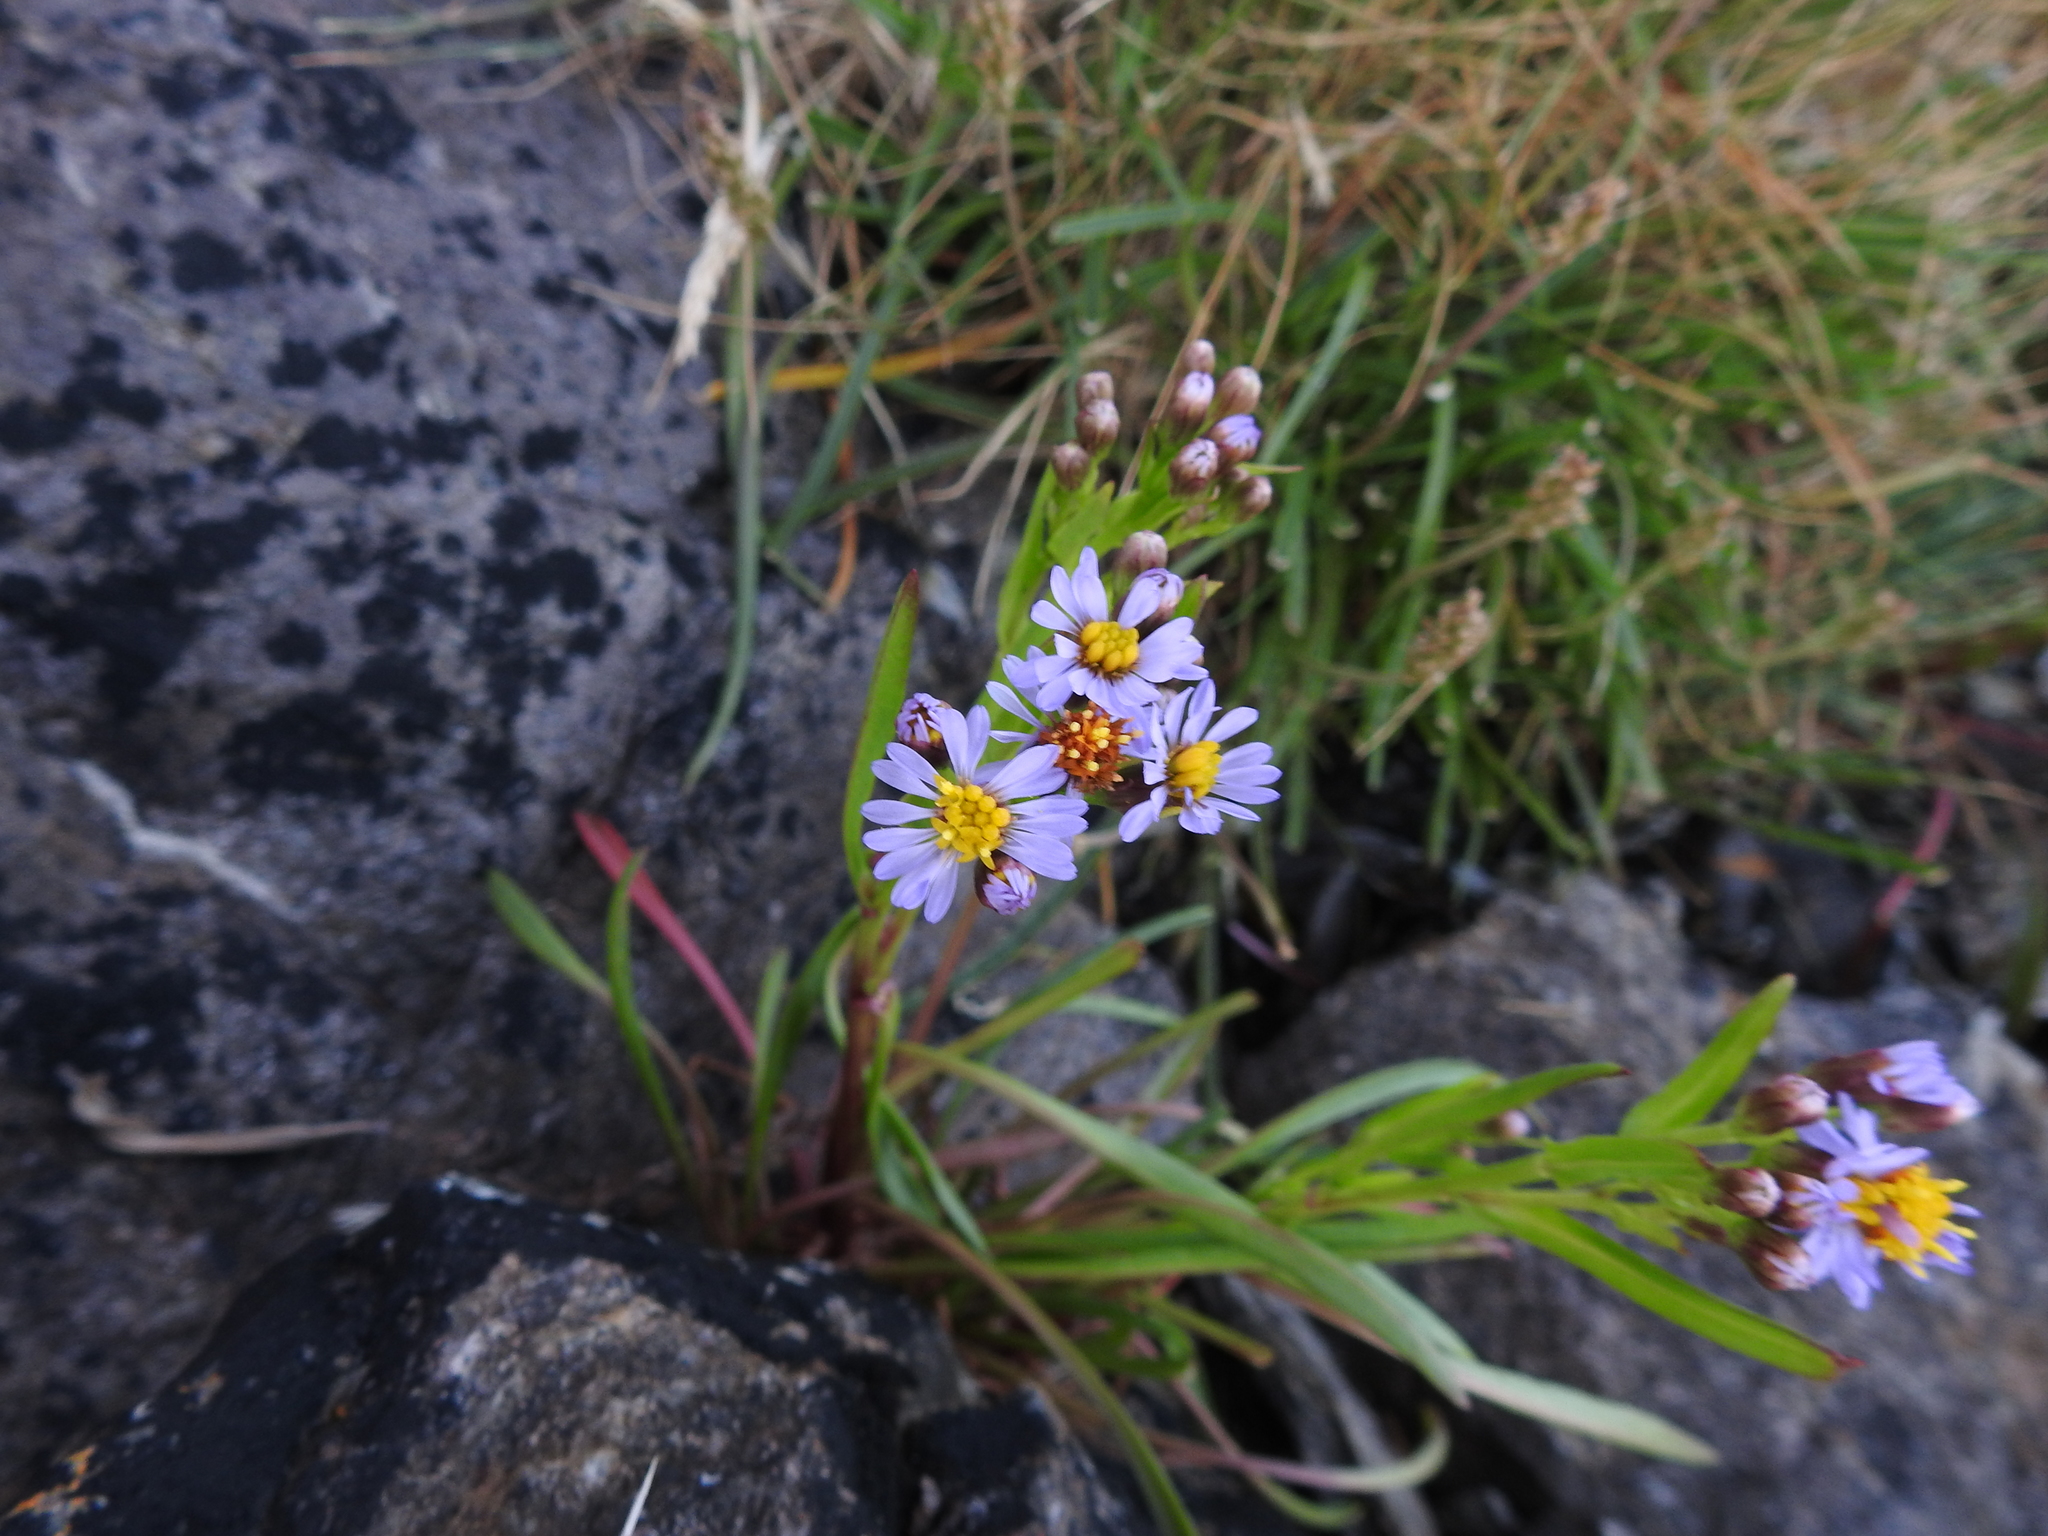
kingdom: Plantae
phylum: Tracheophyta
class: Magnoliopsida
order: Asterales
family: Asteraceae
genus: Tripolium
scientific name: Tripolium pannonicum
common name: Sea aster
